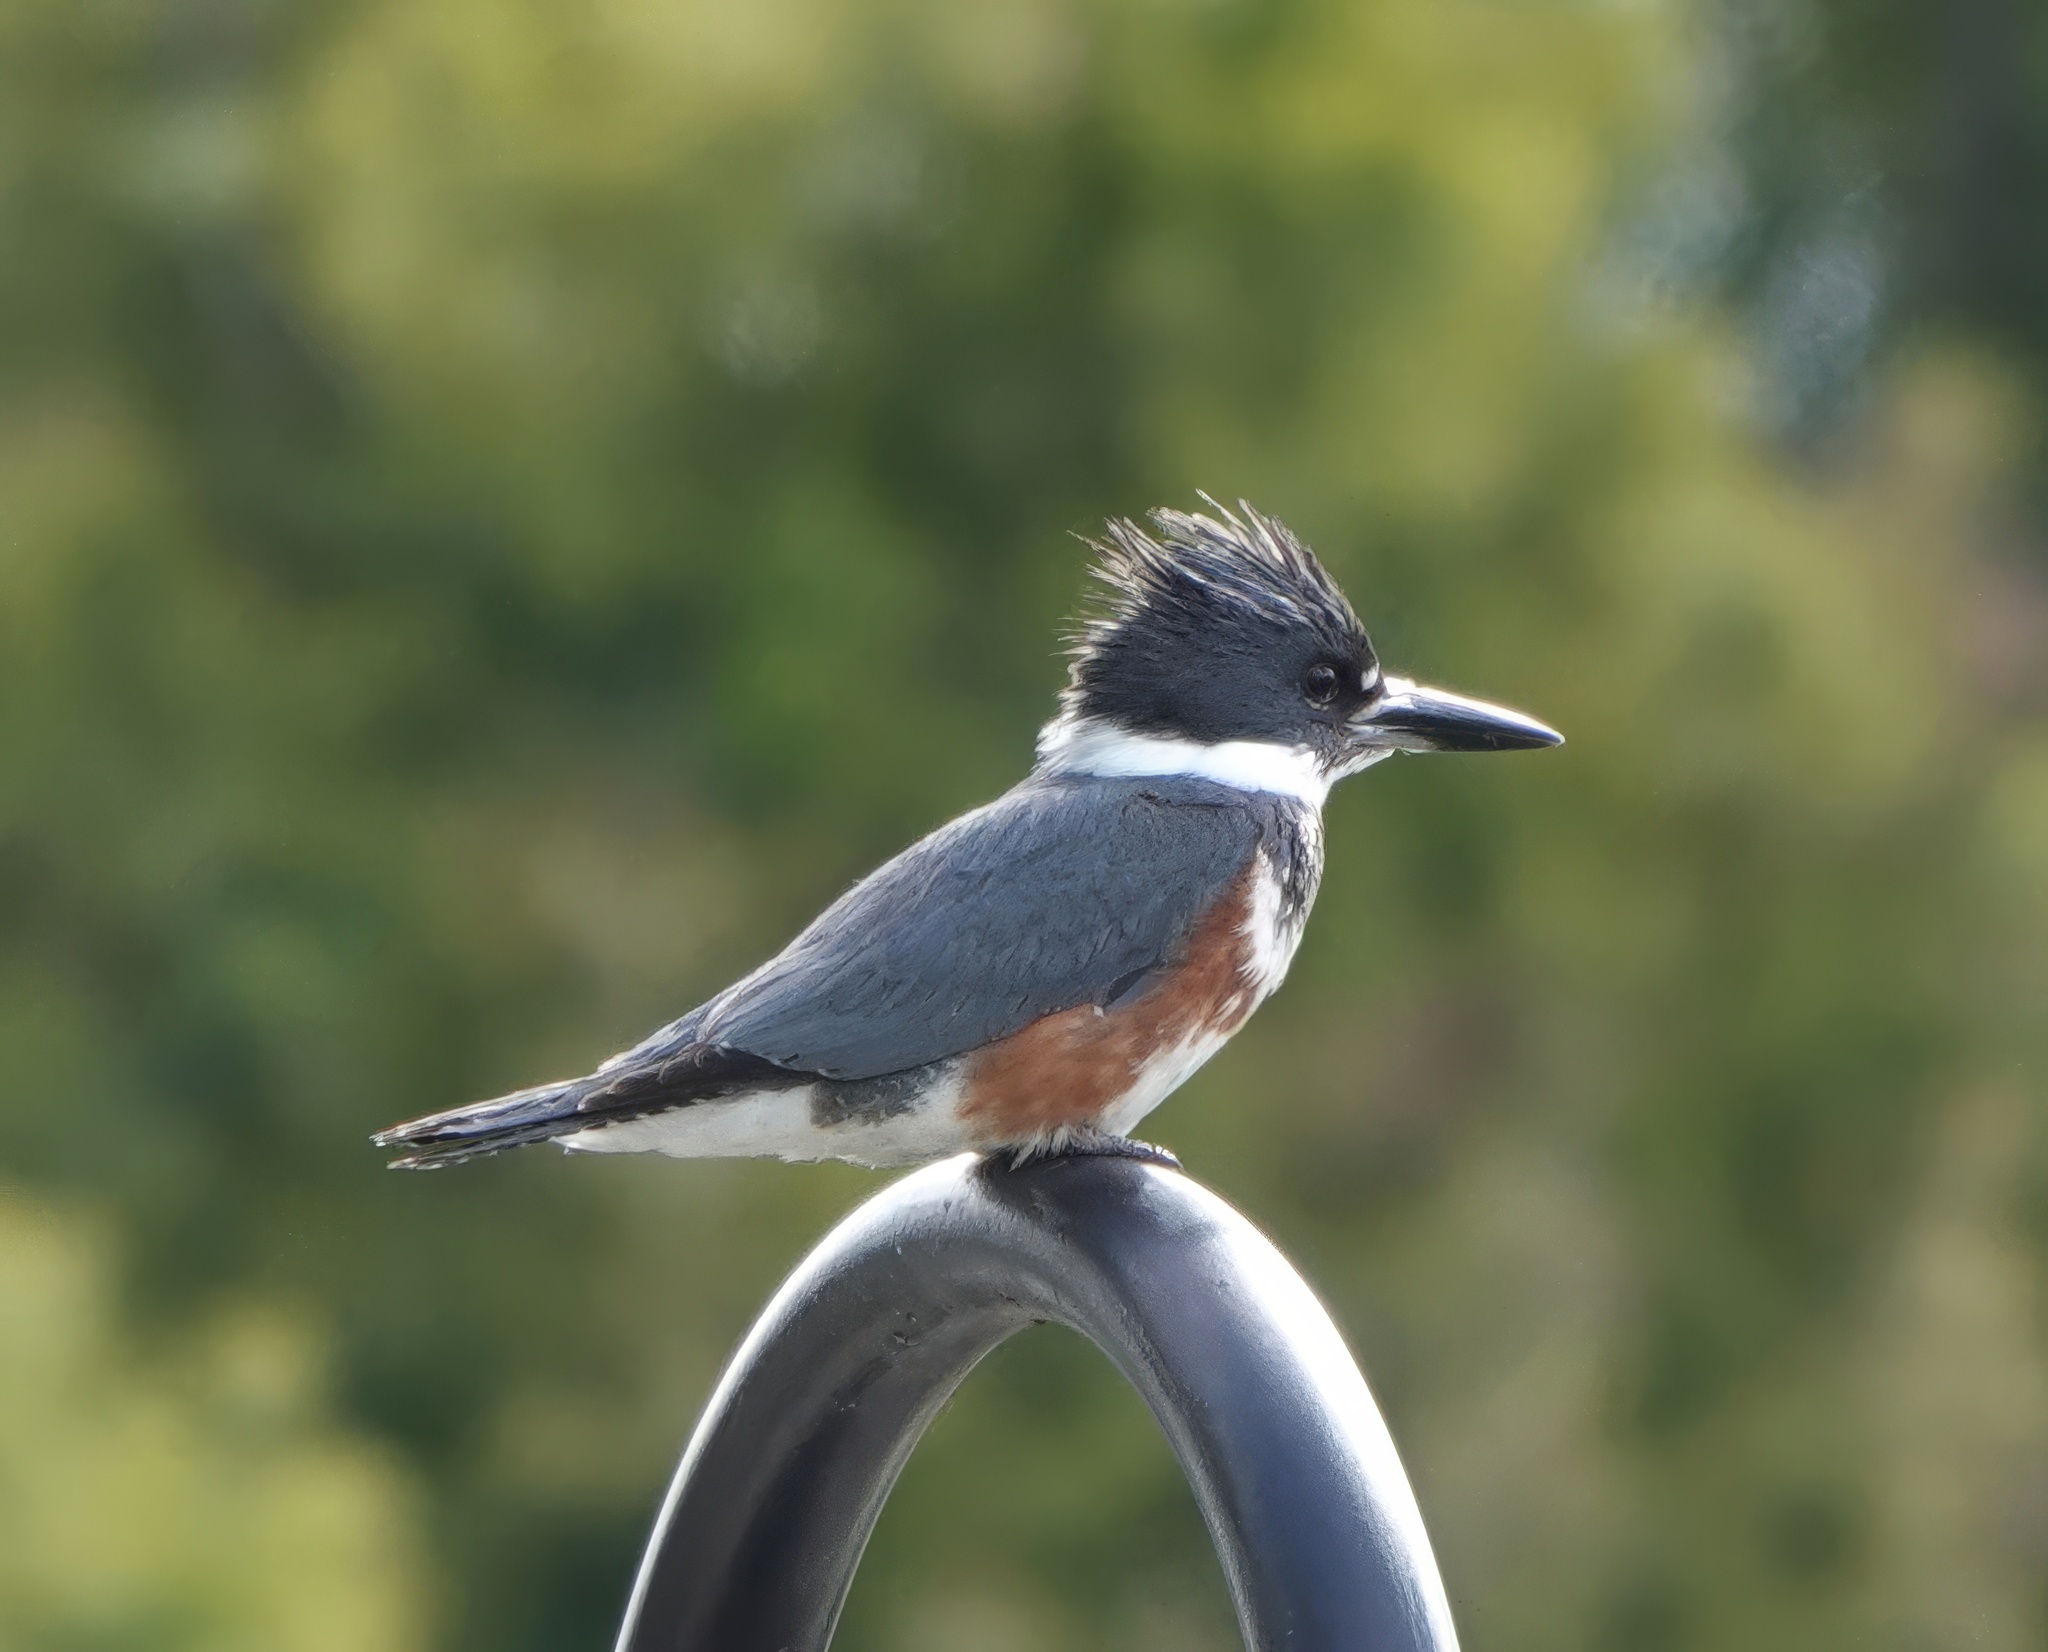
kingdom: Animalia
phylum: Chordata
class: Aves
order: Coraciiformes
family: Alcedinidae
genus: Megaceryle
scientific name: Megaceryle alcyon
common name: Belted kingfisher
